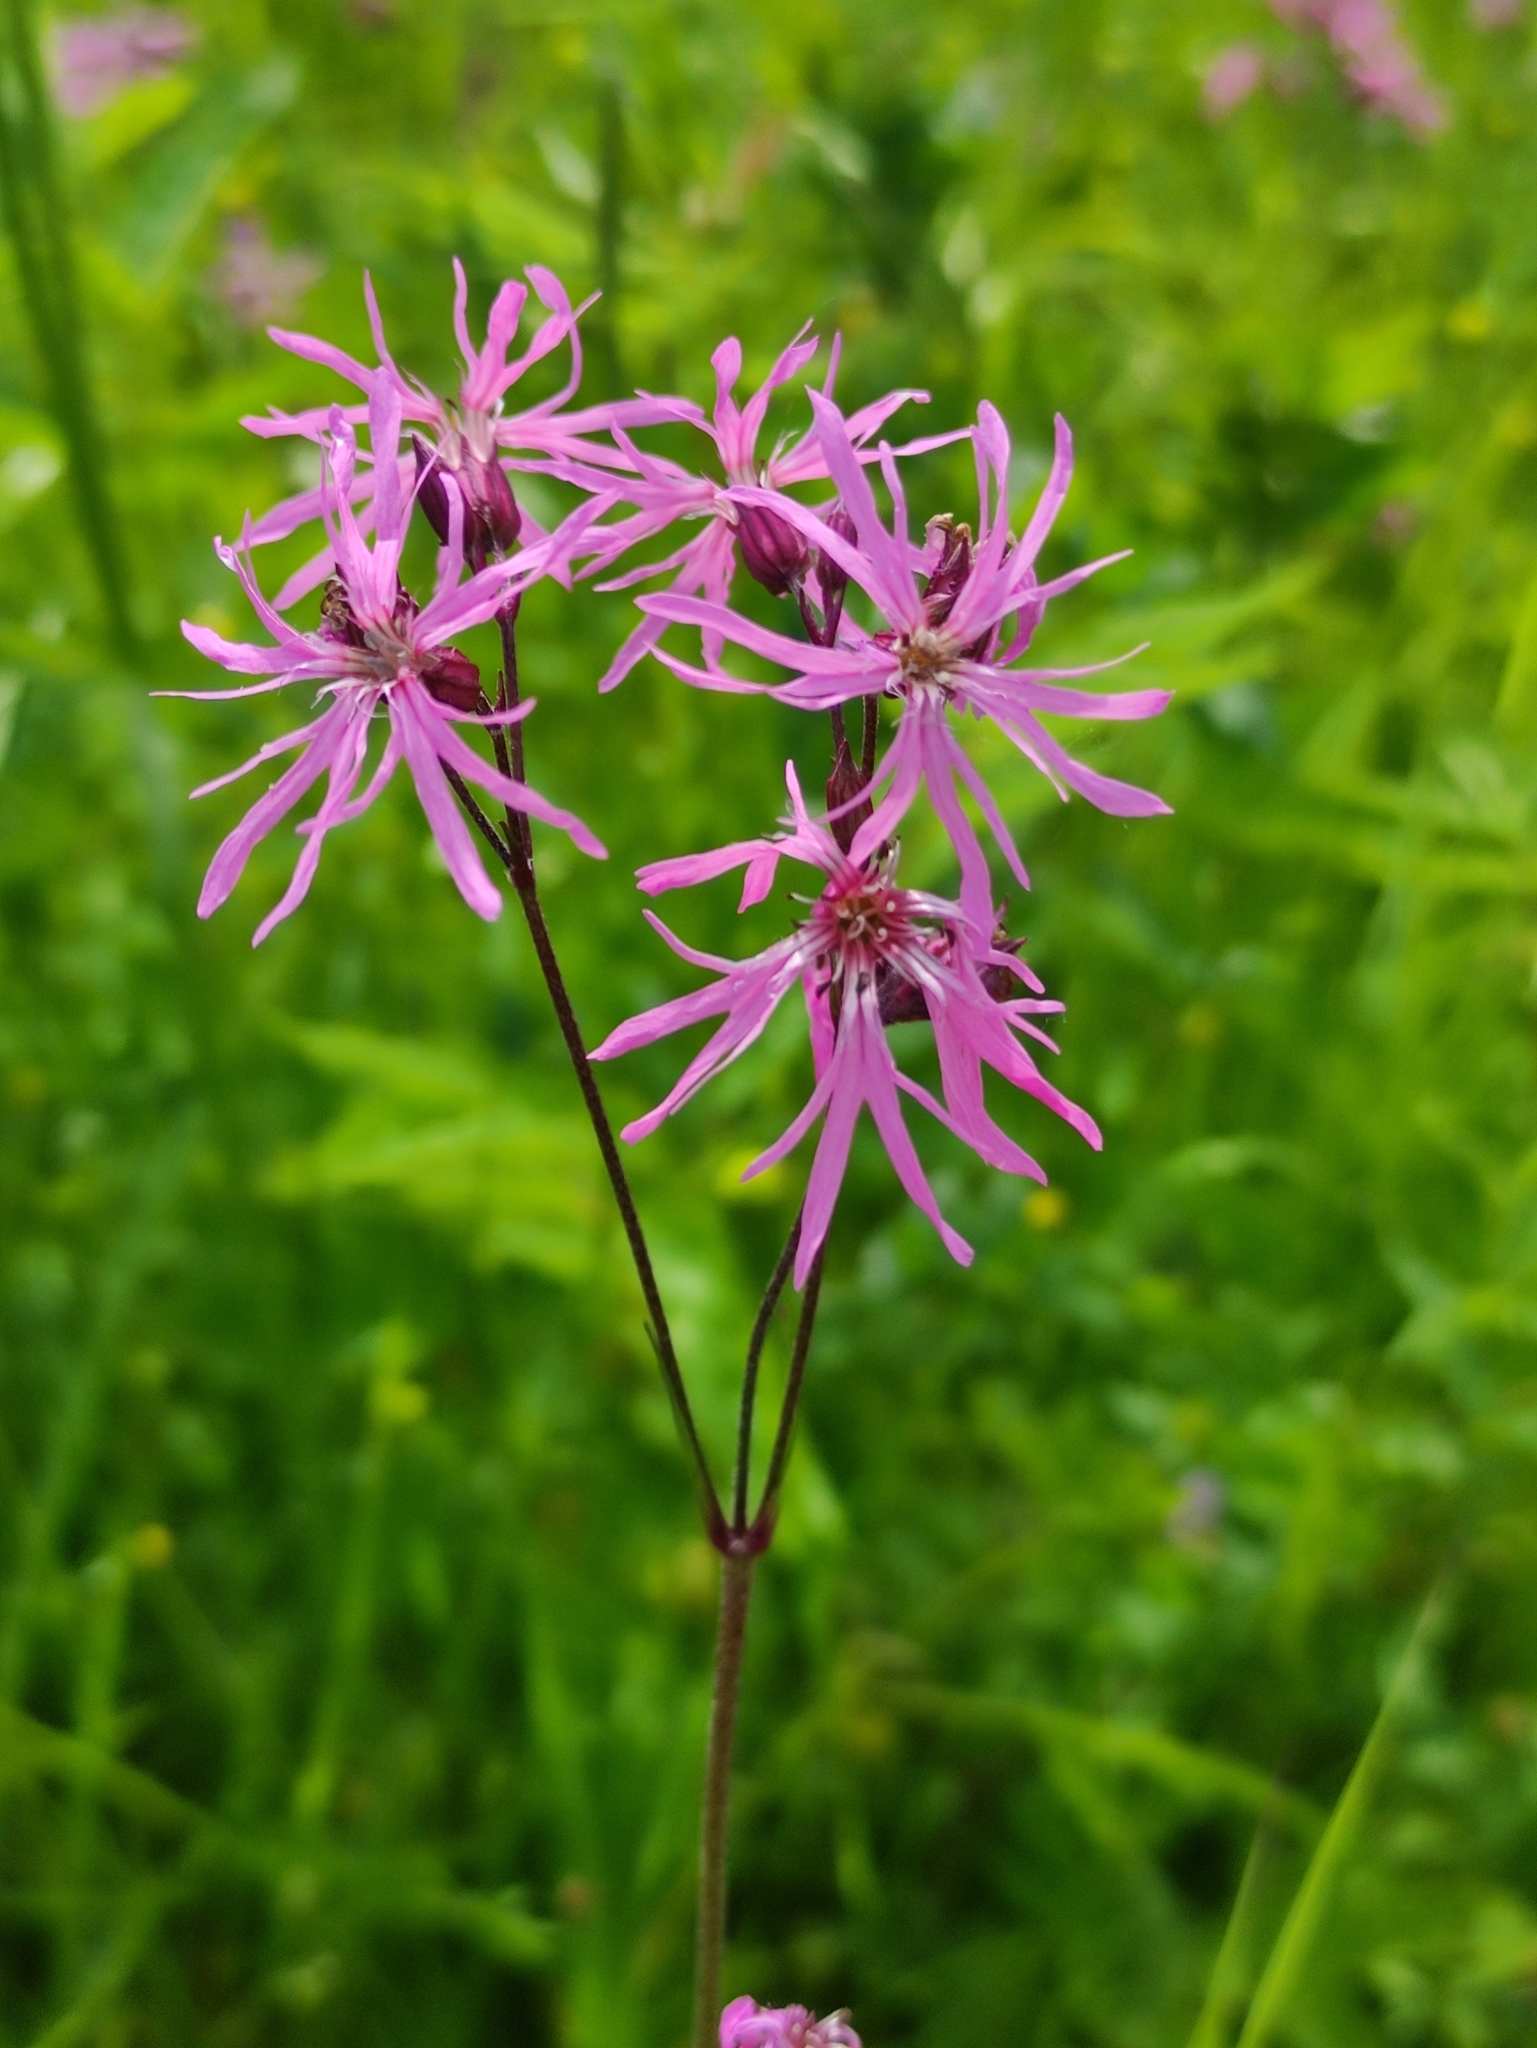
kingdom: Plantae
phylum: Tracheophyta
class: Magnoliopsida
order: Caryophyllales
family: Caryophyllaceae
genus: Silene
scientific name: Silene flos-cuculi
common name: Ragged-robin
